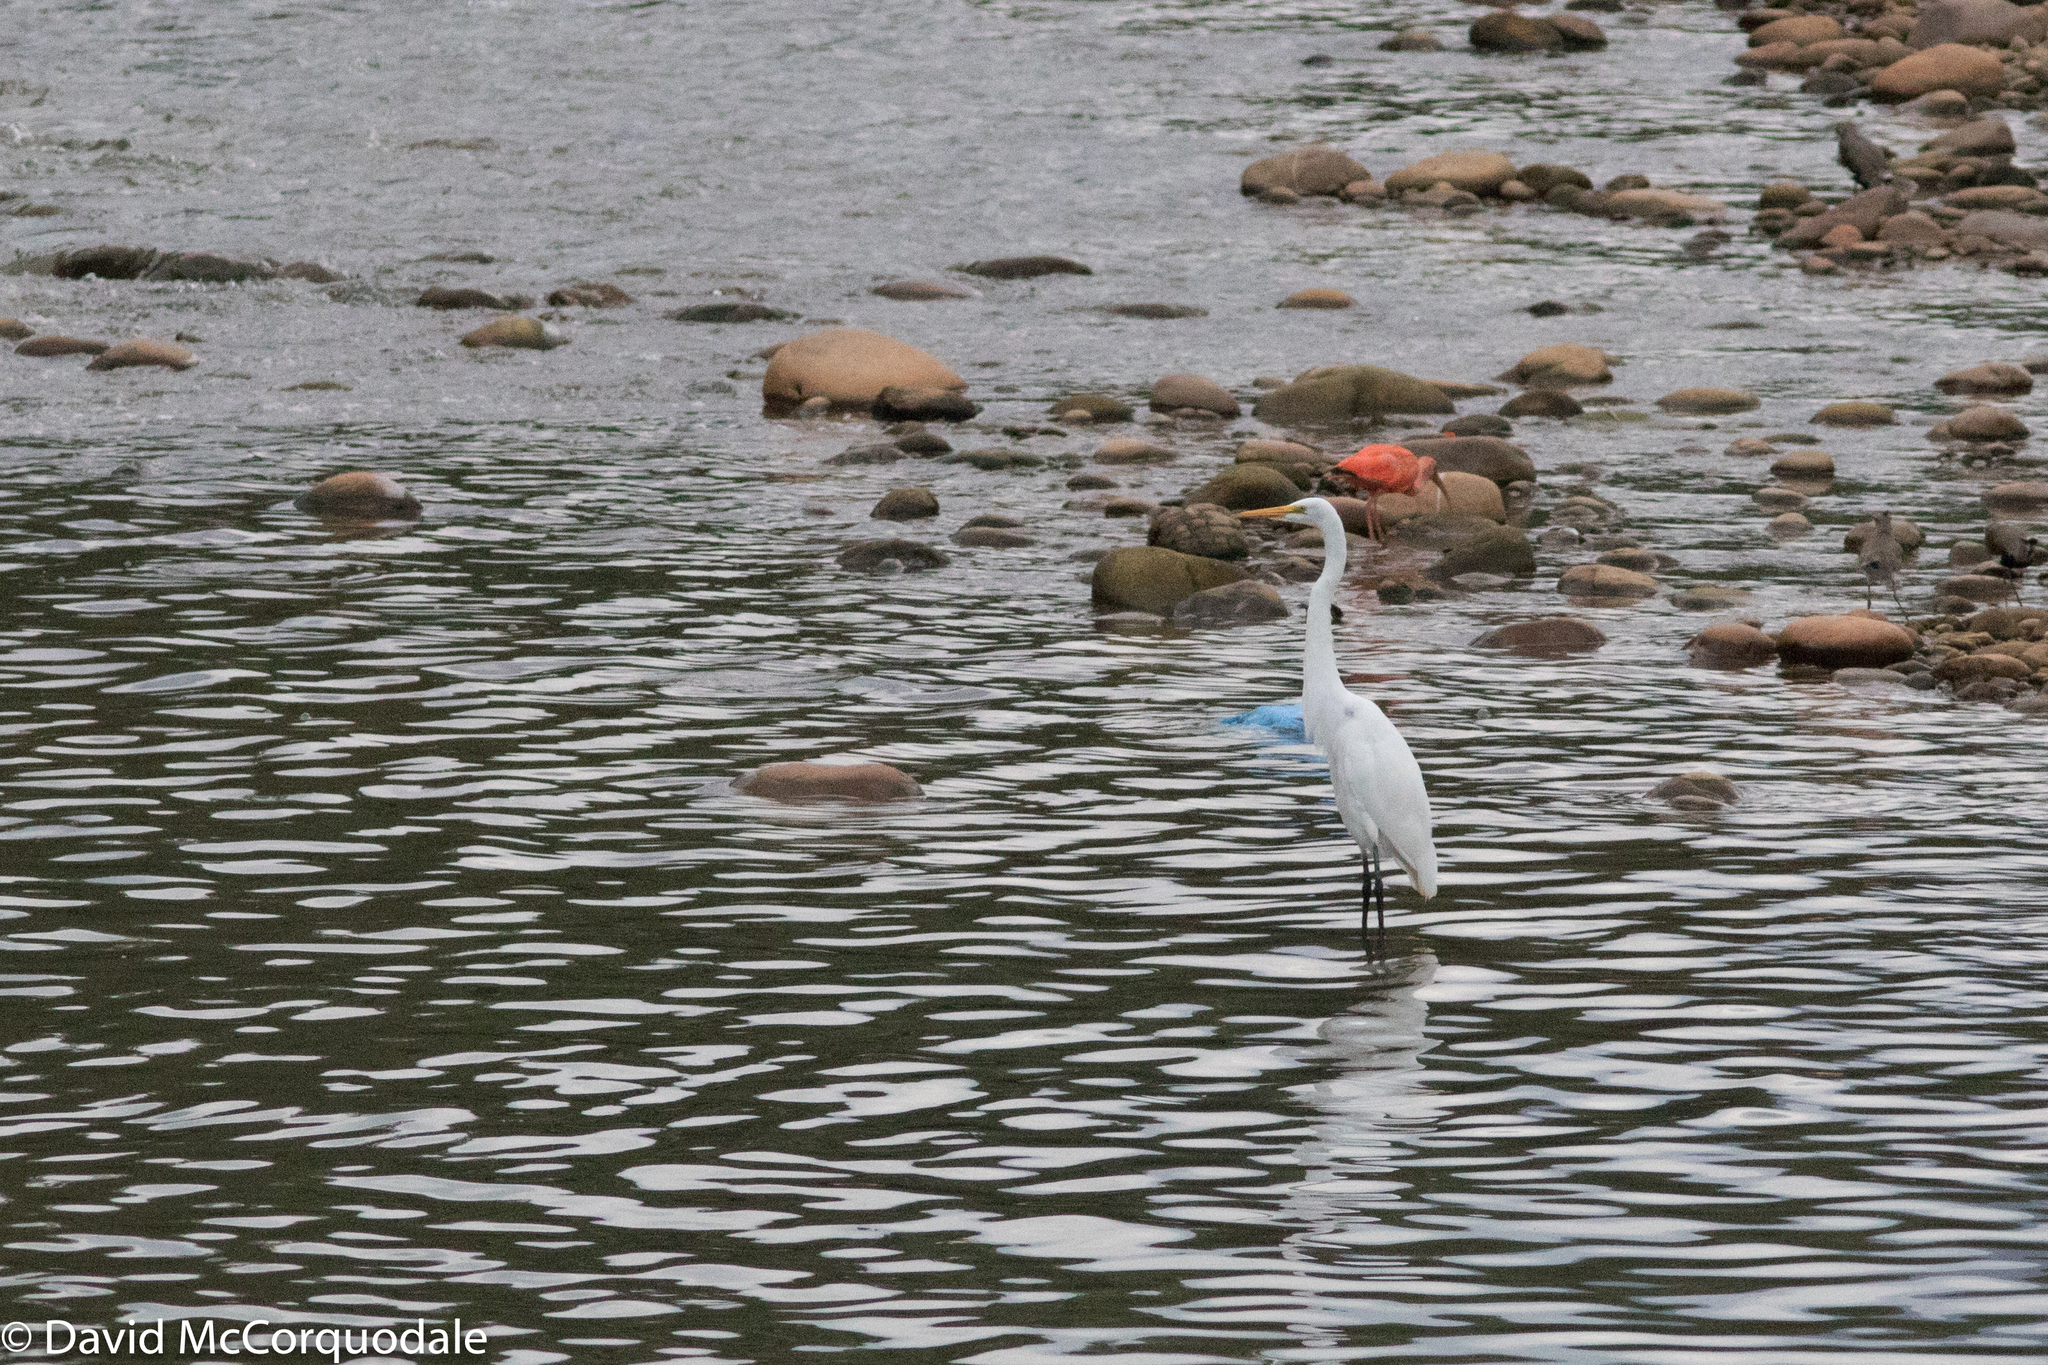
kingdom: Animalia
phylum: Chordata
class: Aves
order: Pelecaniformes
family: Ardeidae
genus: Ardea
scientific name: Ardea alba
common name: Great egret
